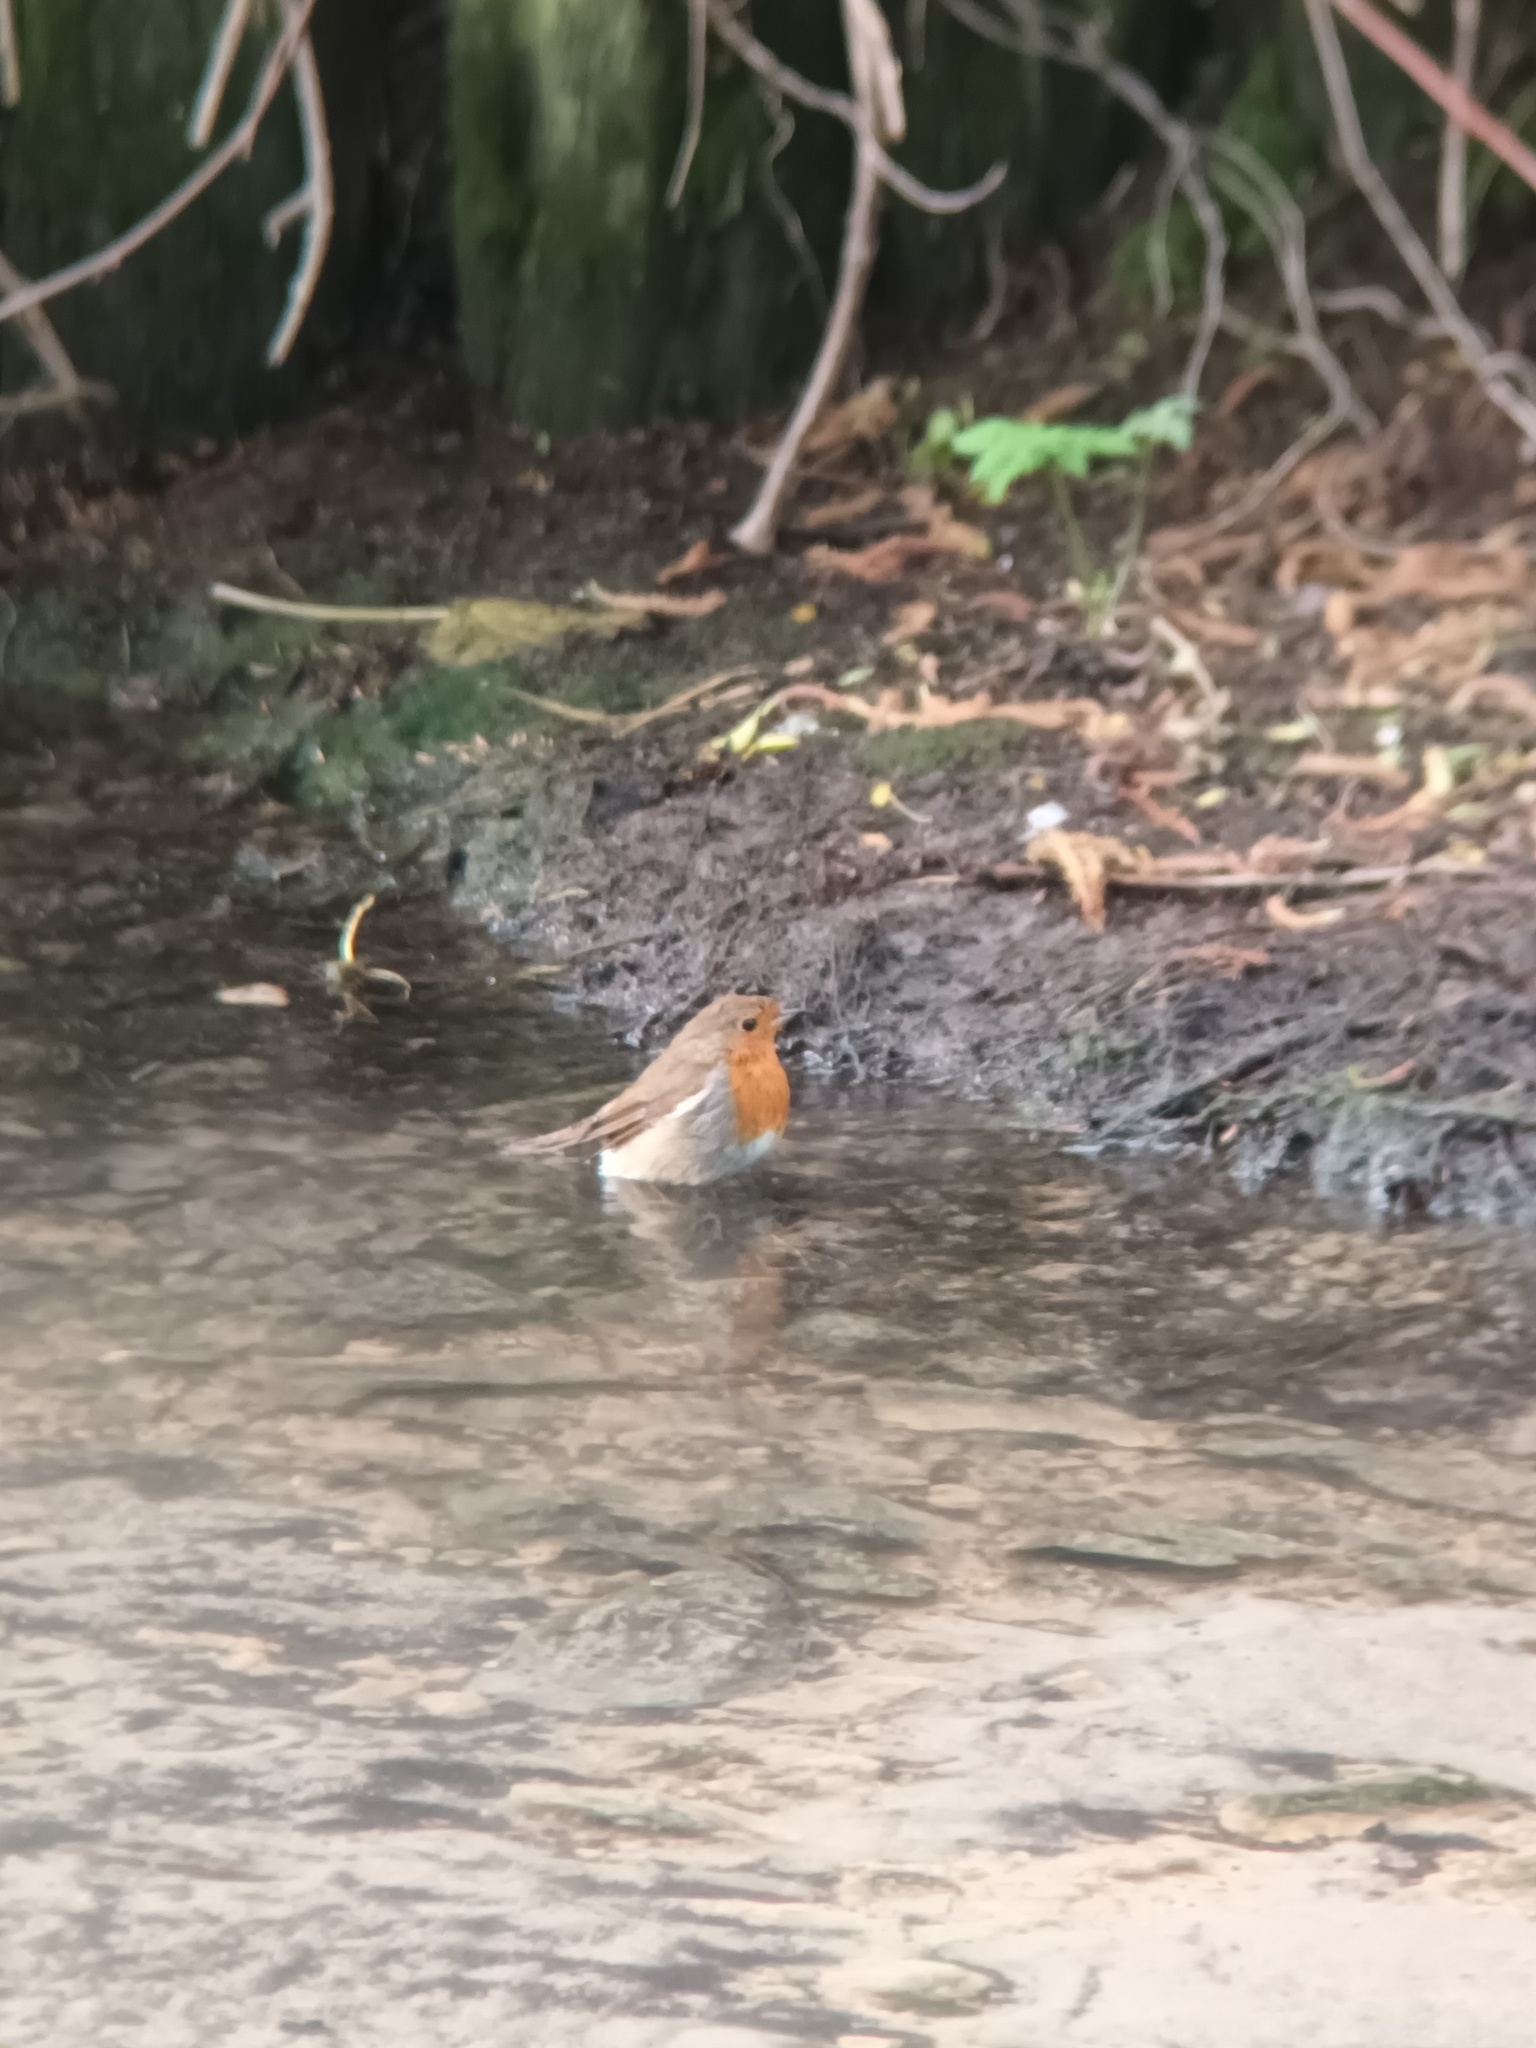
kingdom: Animalia
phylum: Chordata
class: Aves
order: Passeriformes
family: Muscicapidae
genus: Erithacus
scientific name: Erithacus rubecula
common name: European robin
